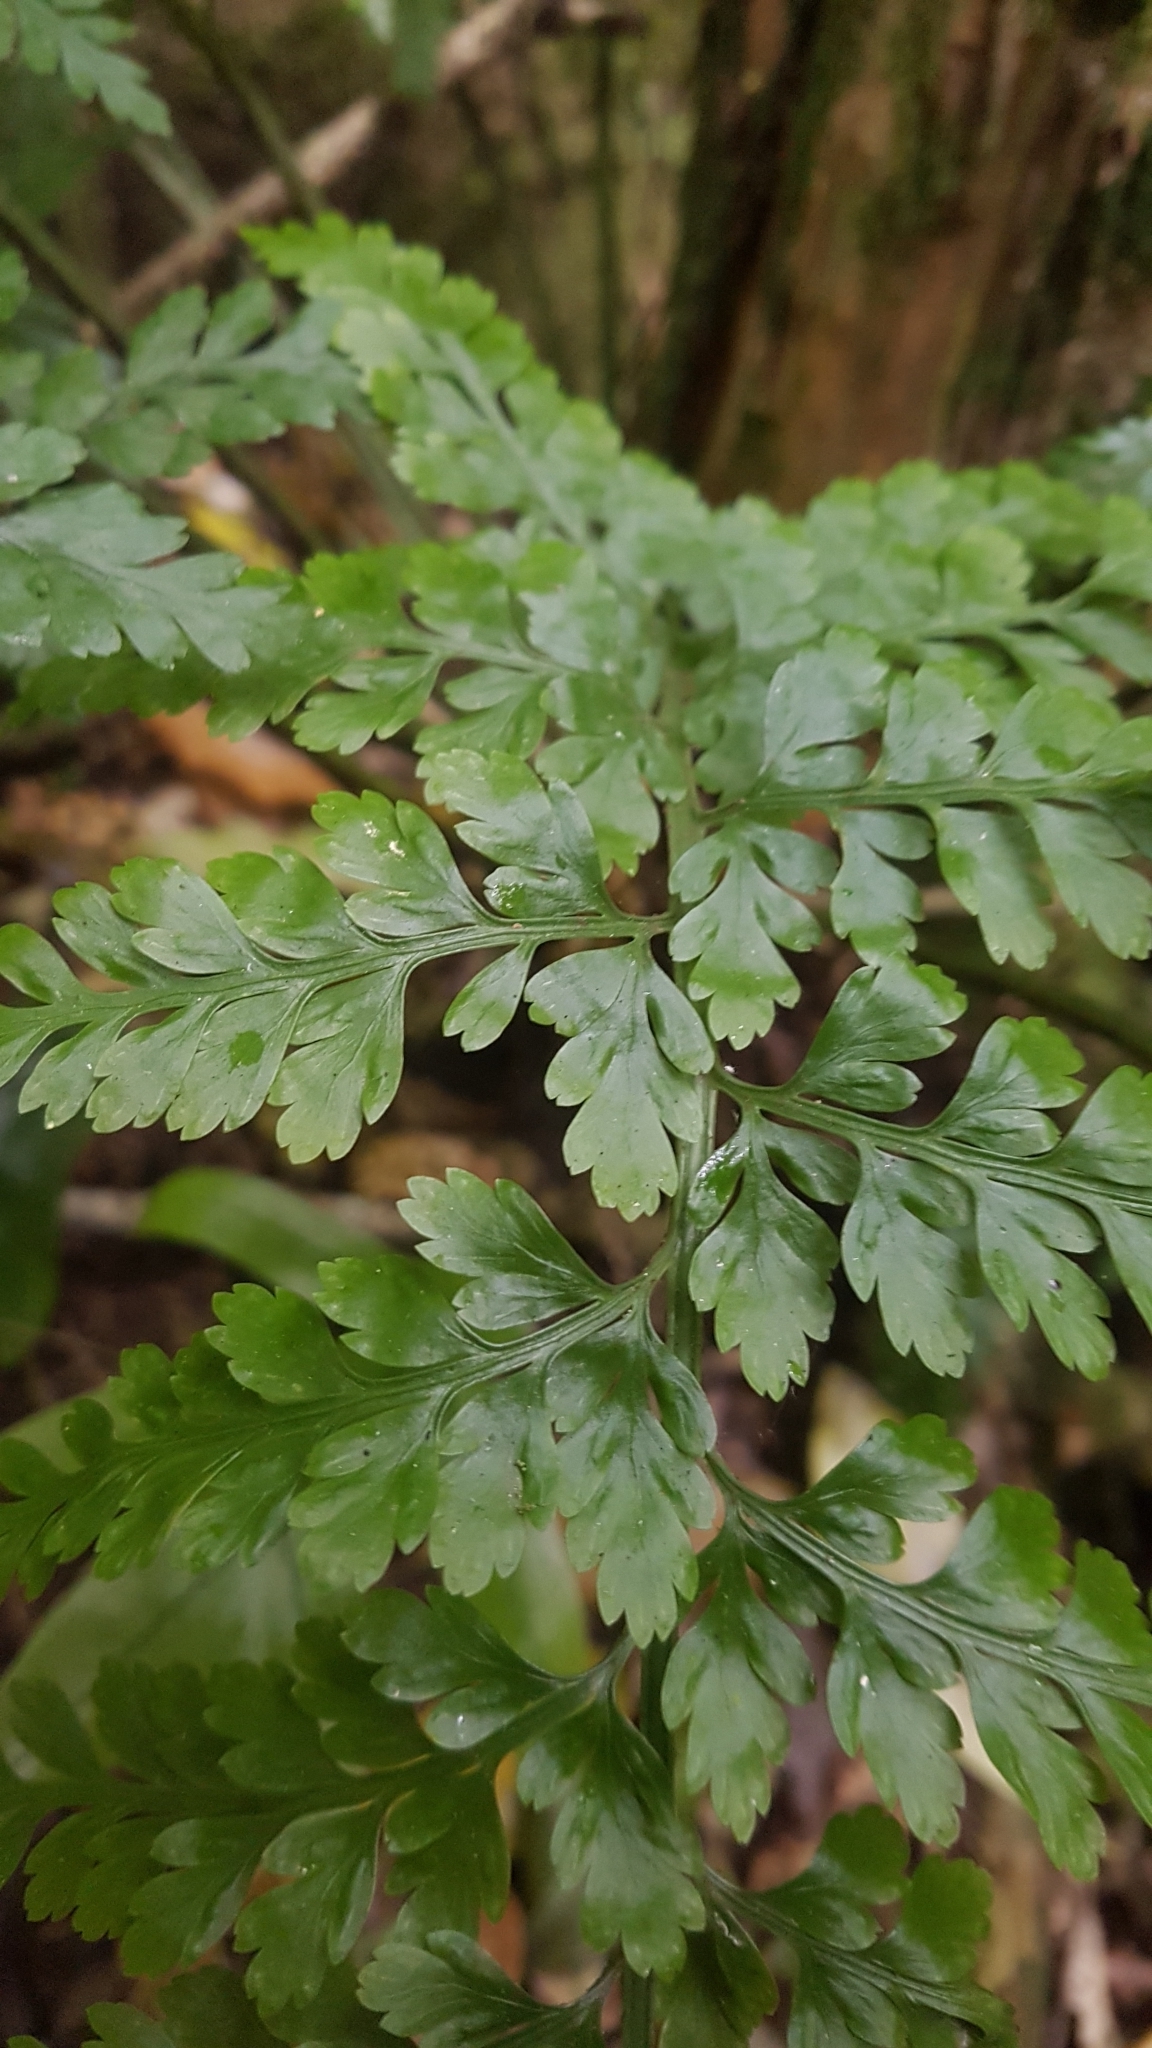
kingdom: Plantae
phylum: Tracheophyta
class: Polypodiopsida
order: Polypodiales
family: Aspleniaceae
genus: Asplenium
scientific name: Asplenium
